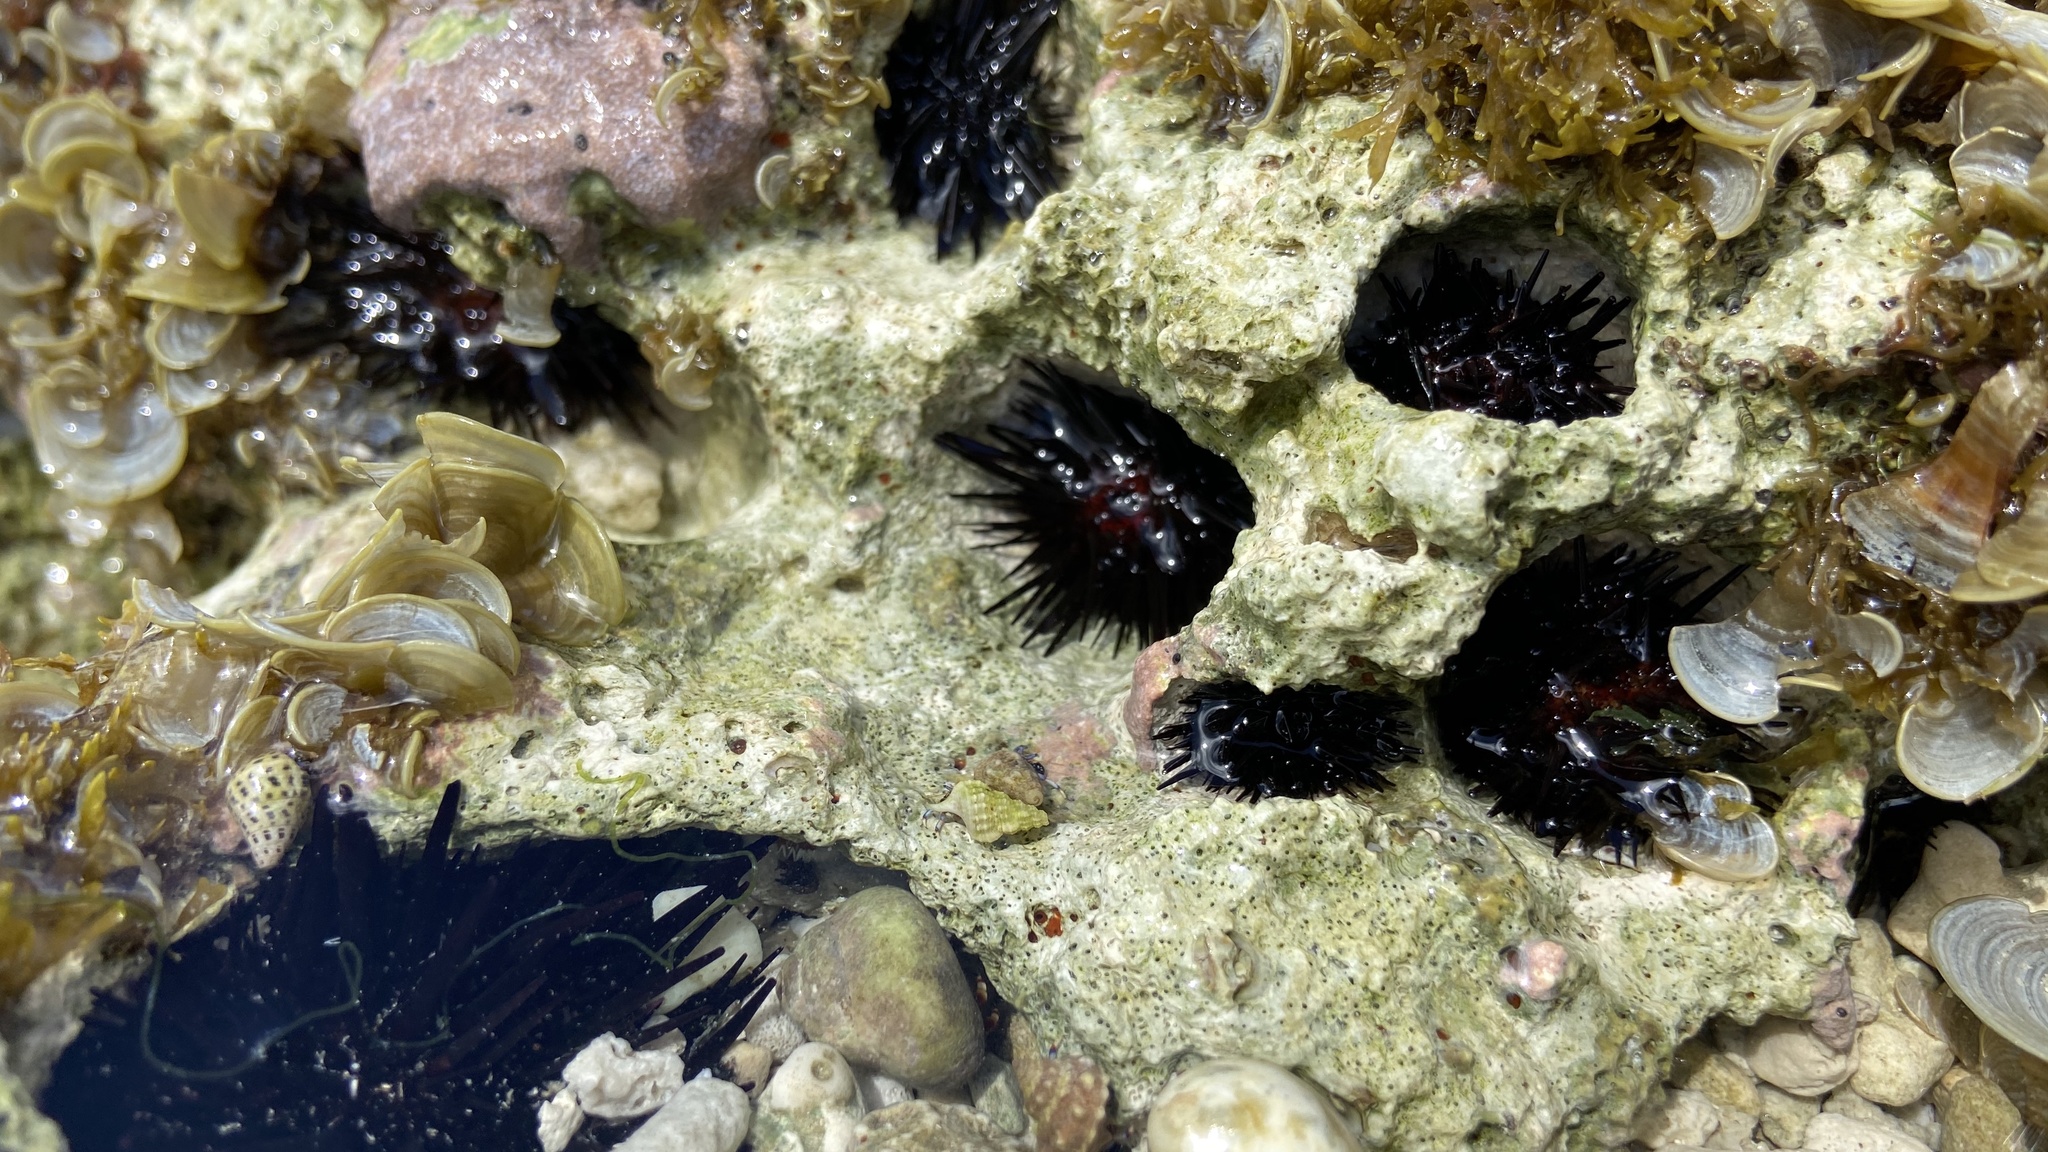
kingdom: Animalia
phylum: Echinodermata
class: Echinoidea
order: Camarodonta
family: Echinometridae
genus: Echinometra
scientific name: Echinometra lucunter
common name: Rock urchin
